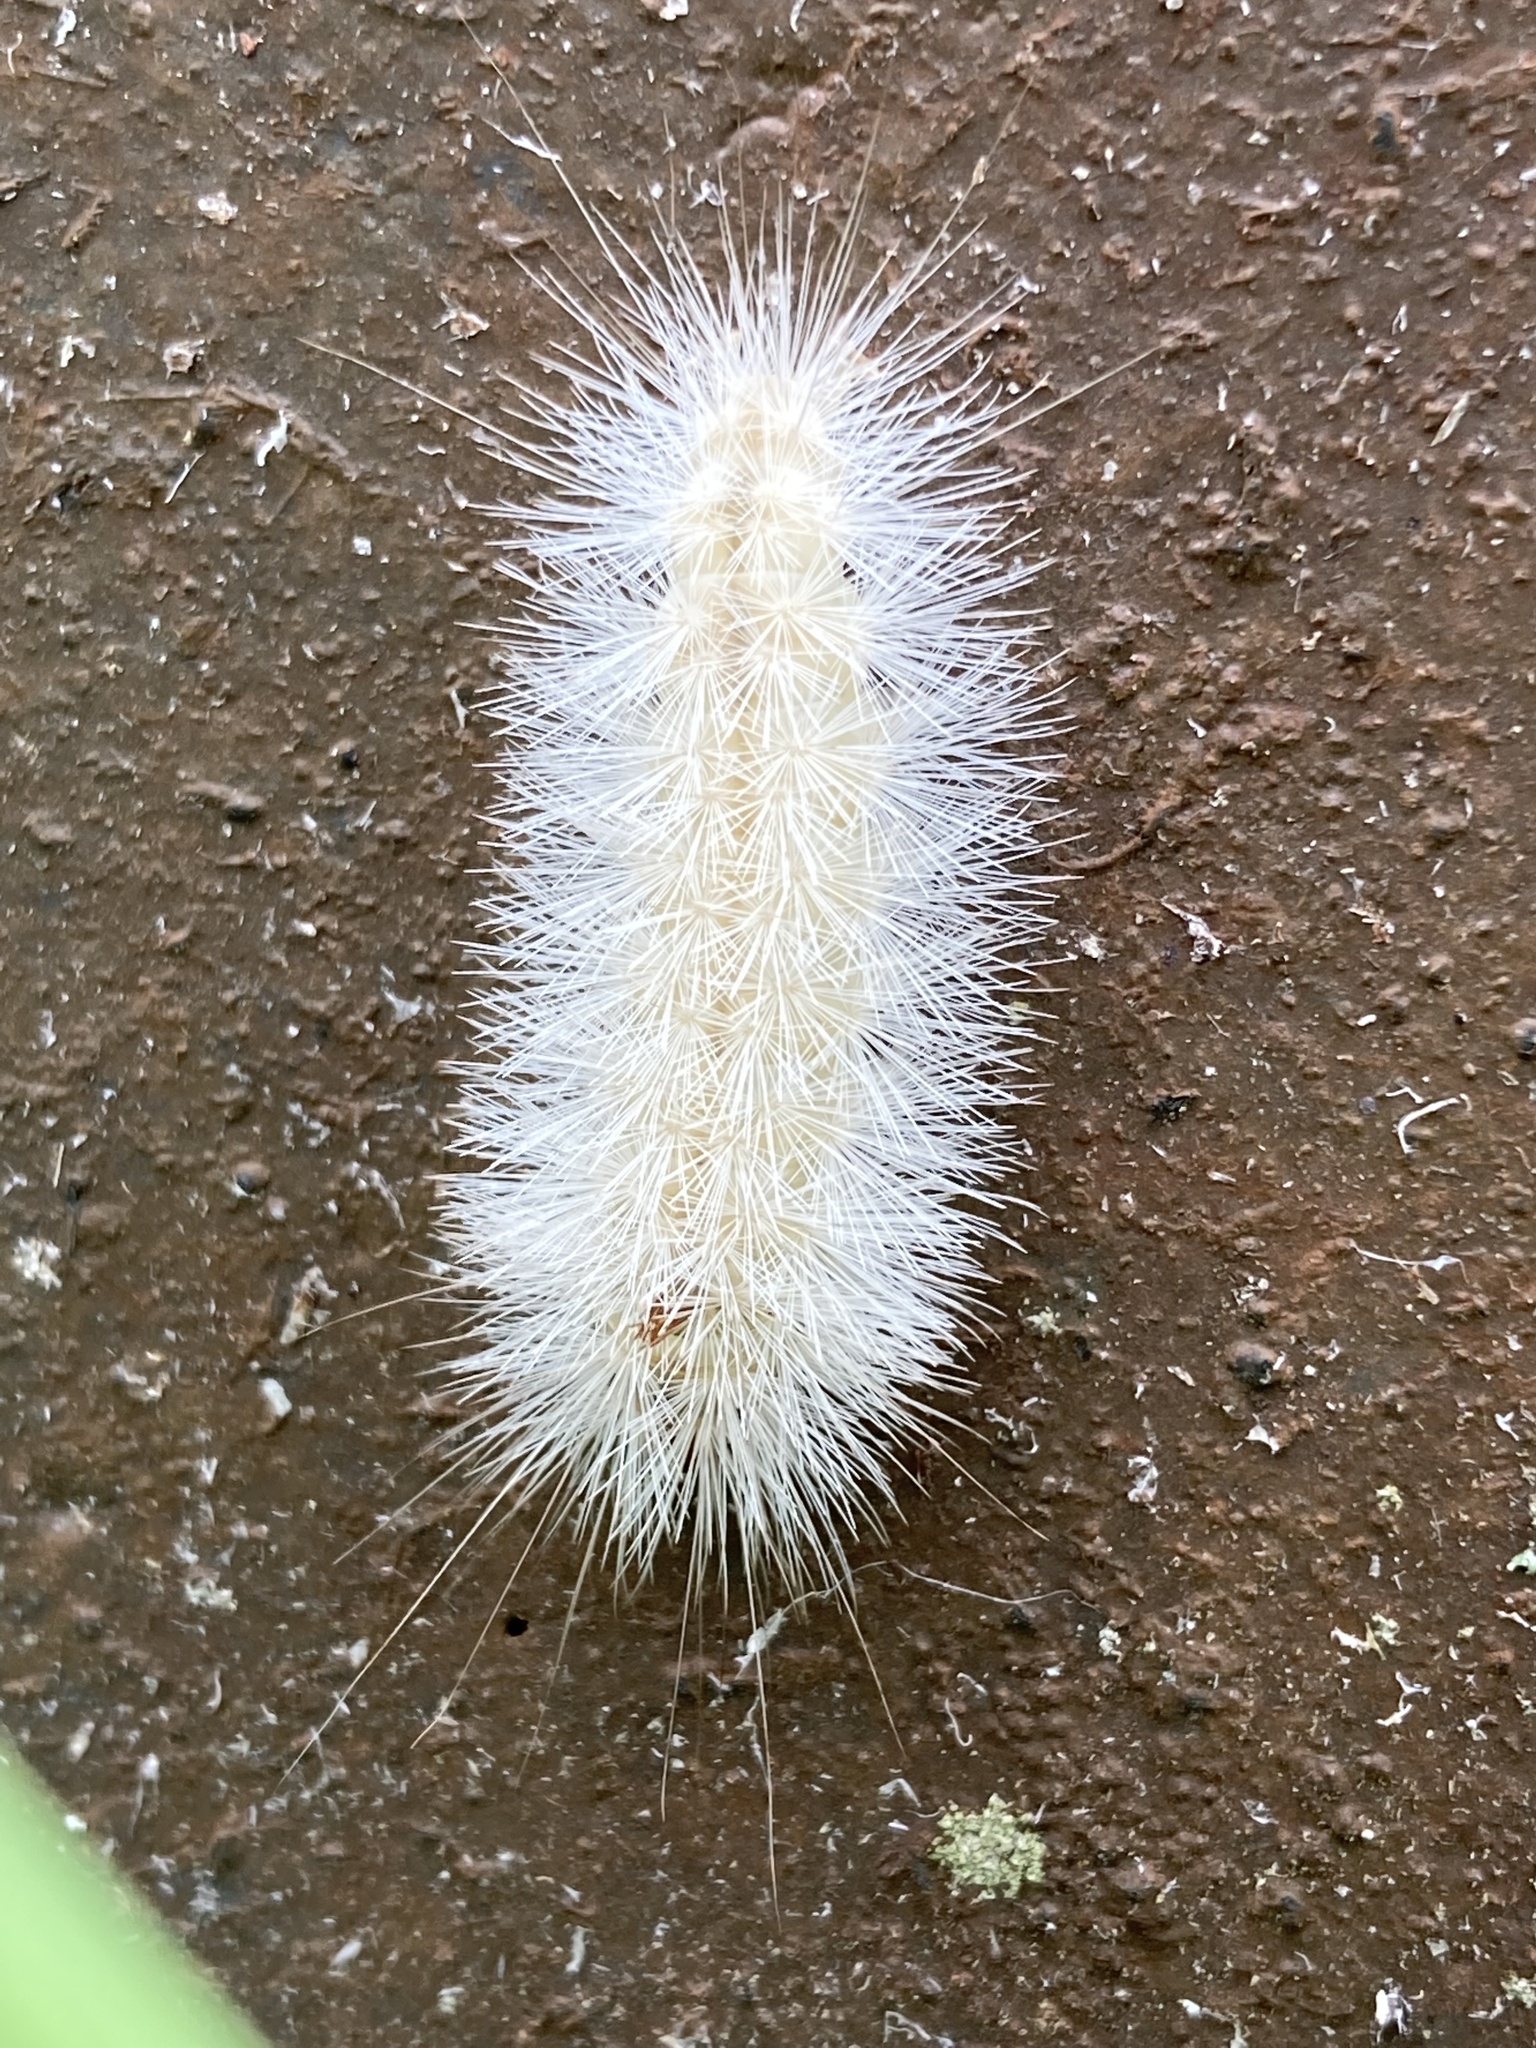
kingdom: Animalia
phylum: Arthropoda
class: Insecta
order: Lepidoptera
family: Erebidae
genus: Lymire
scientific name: Lymire edwardsii
